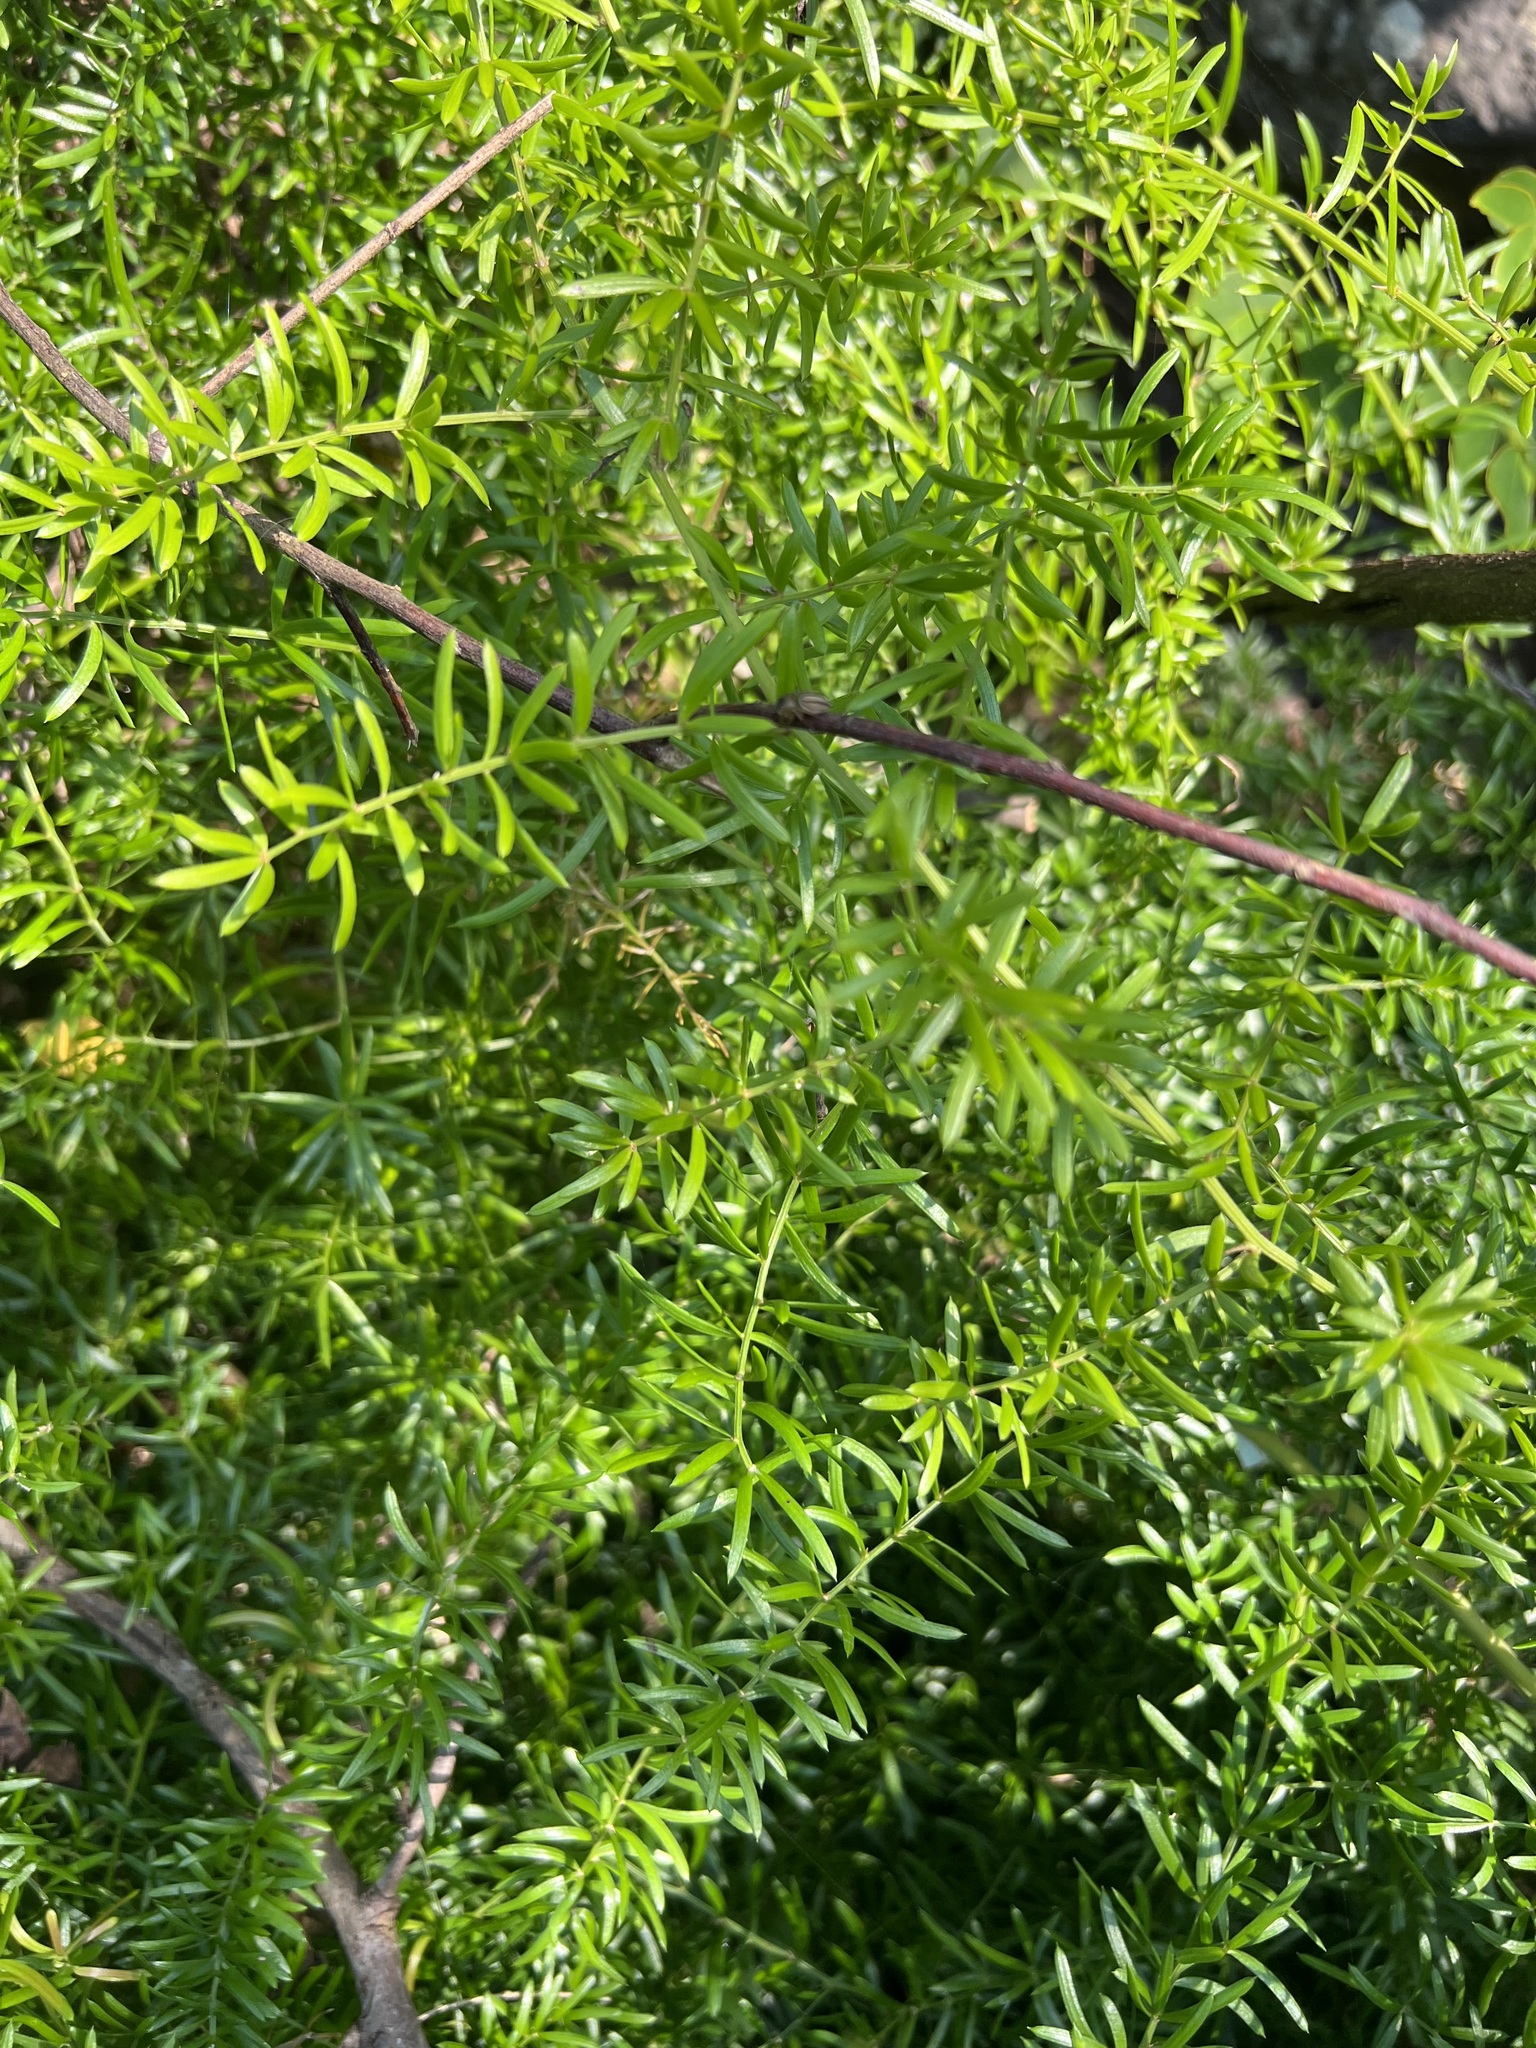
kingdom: Plantae
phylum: Tracheophyta
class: Liliopsida
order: Asparagales
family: Asparagaceae
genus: Asparagus
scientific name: Asparagus aethiopicus
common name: Sprenger's asparagus fern
